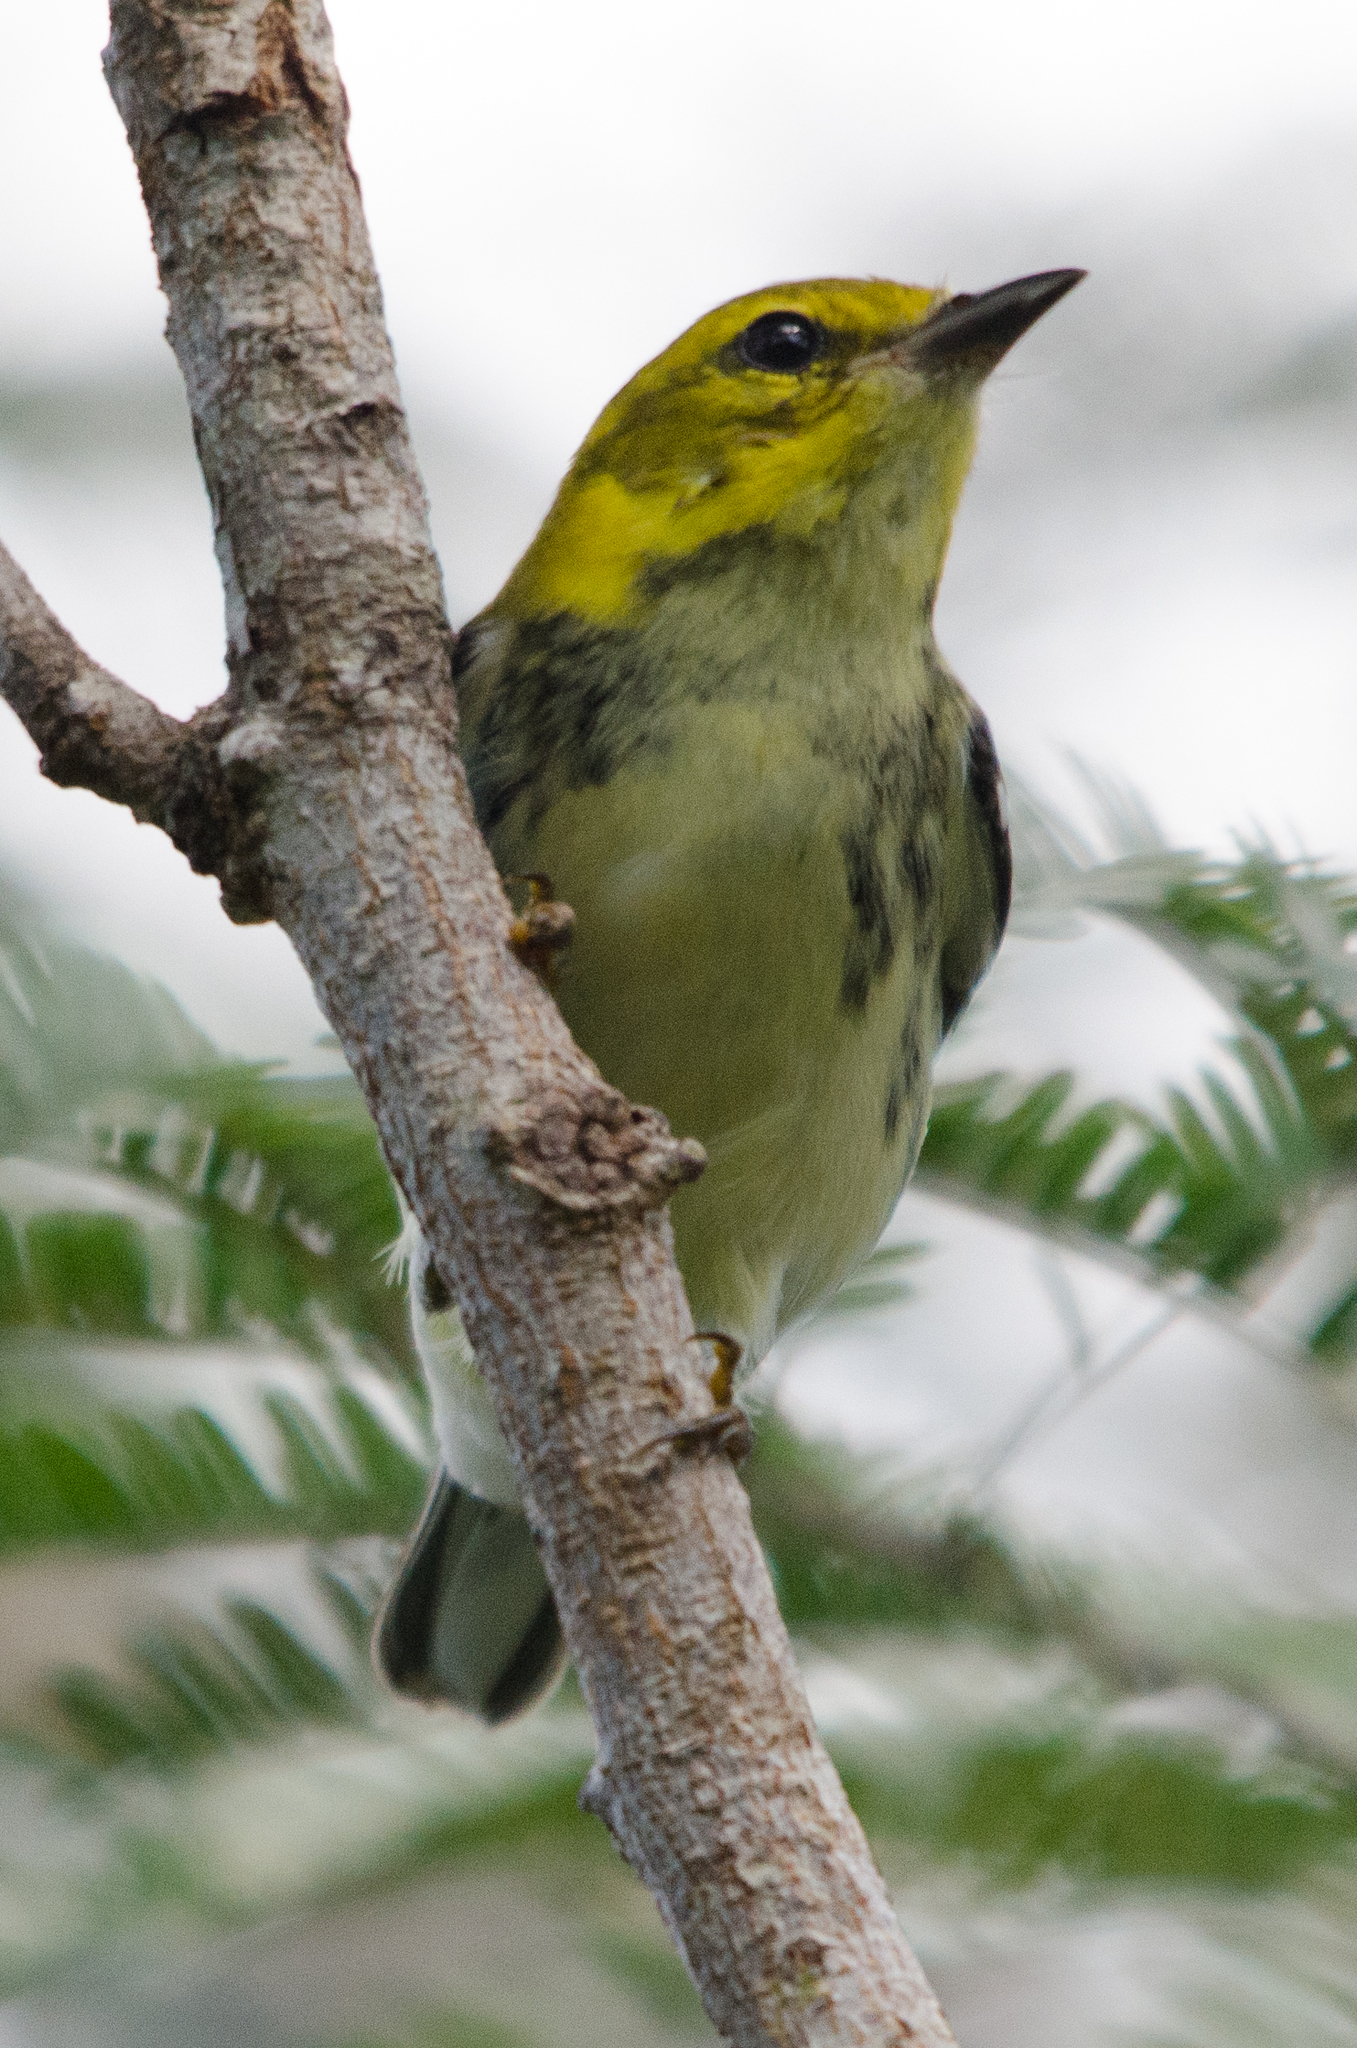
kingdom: Animalia
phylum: Chordata
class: Aves
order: Passeriformes
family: Parulidae
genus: Setophaga
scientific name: Setophaga virens
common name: Black-throated green warbler
